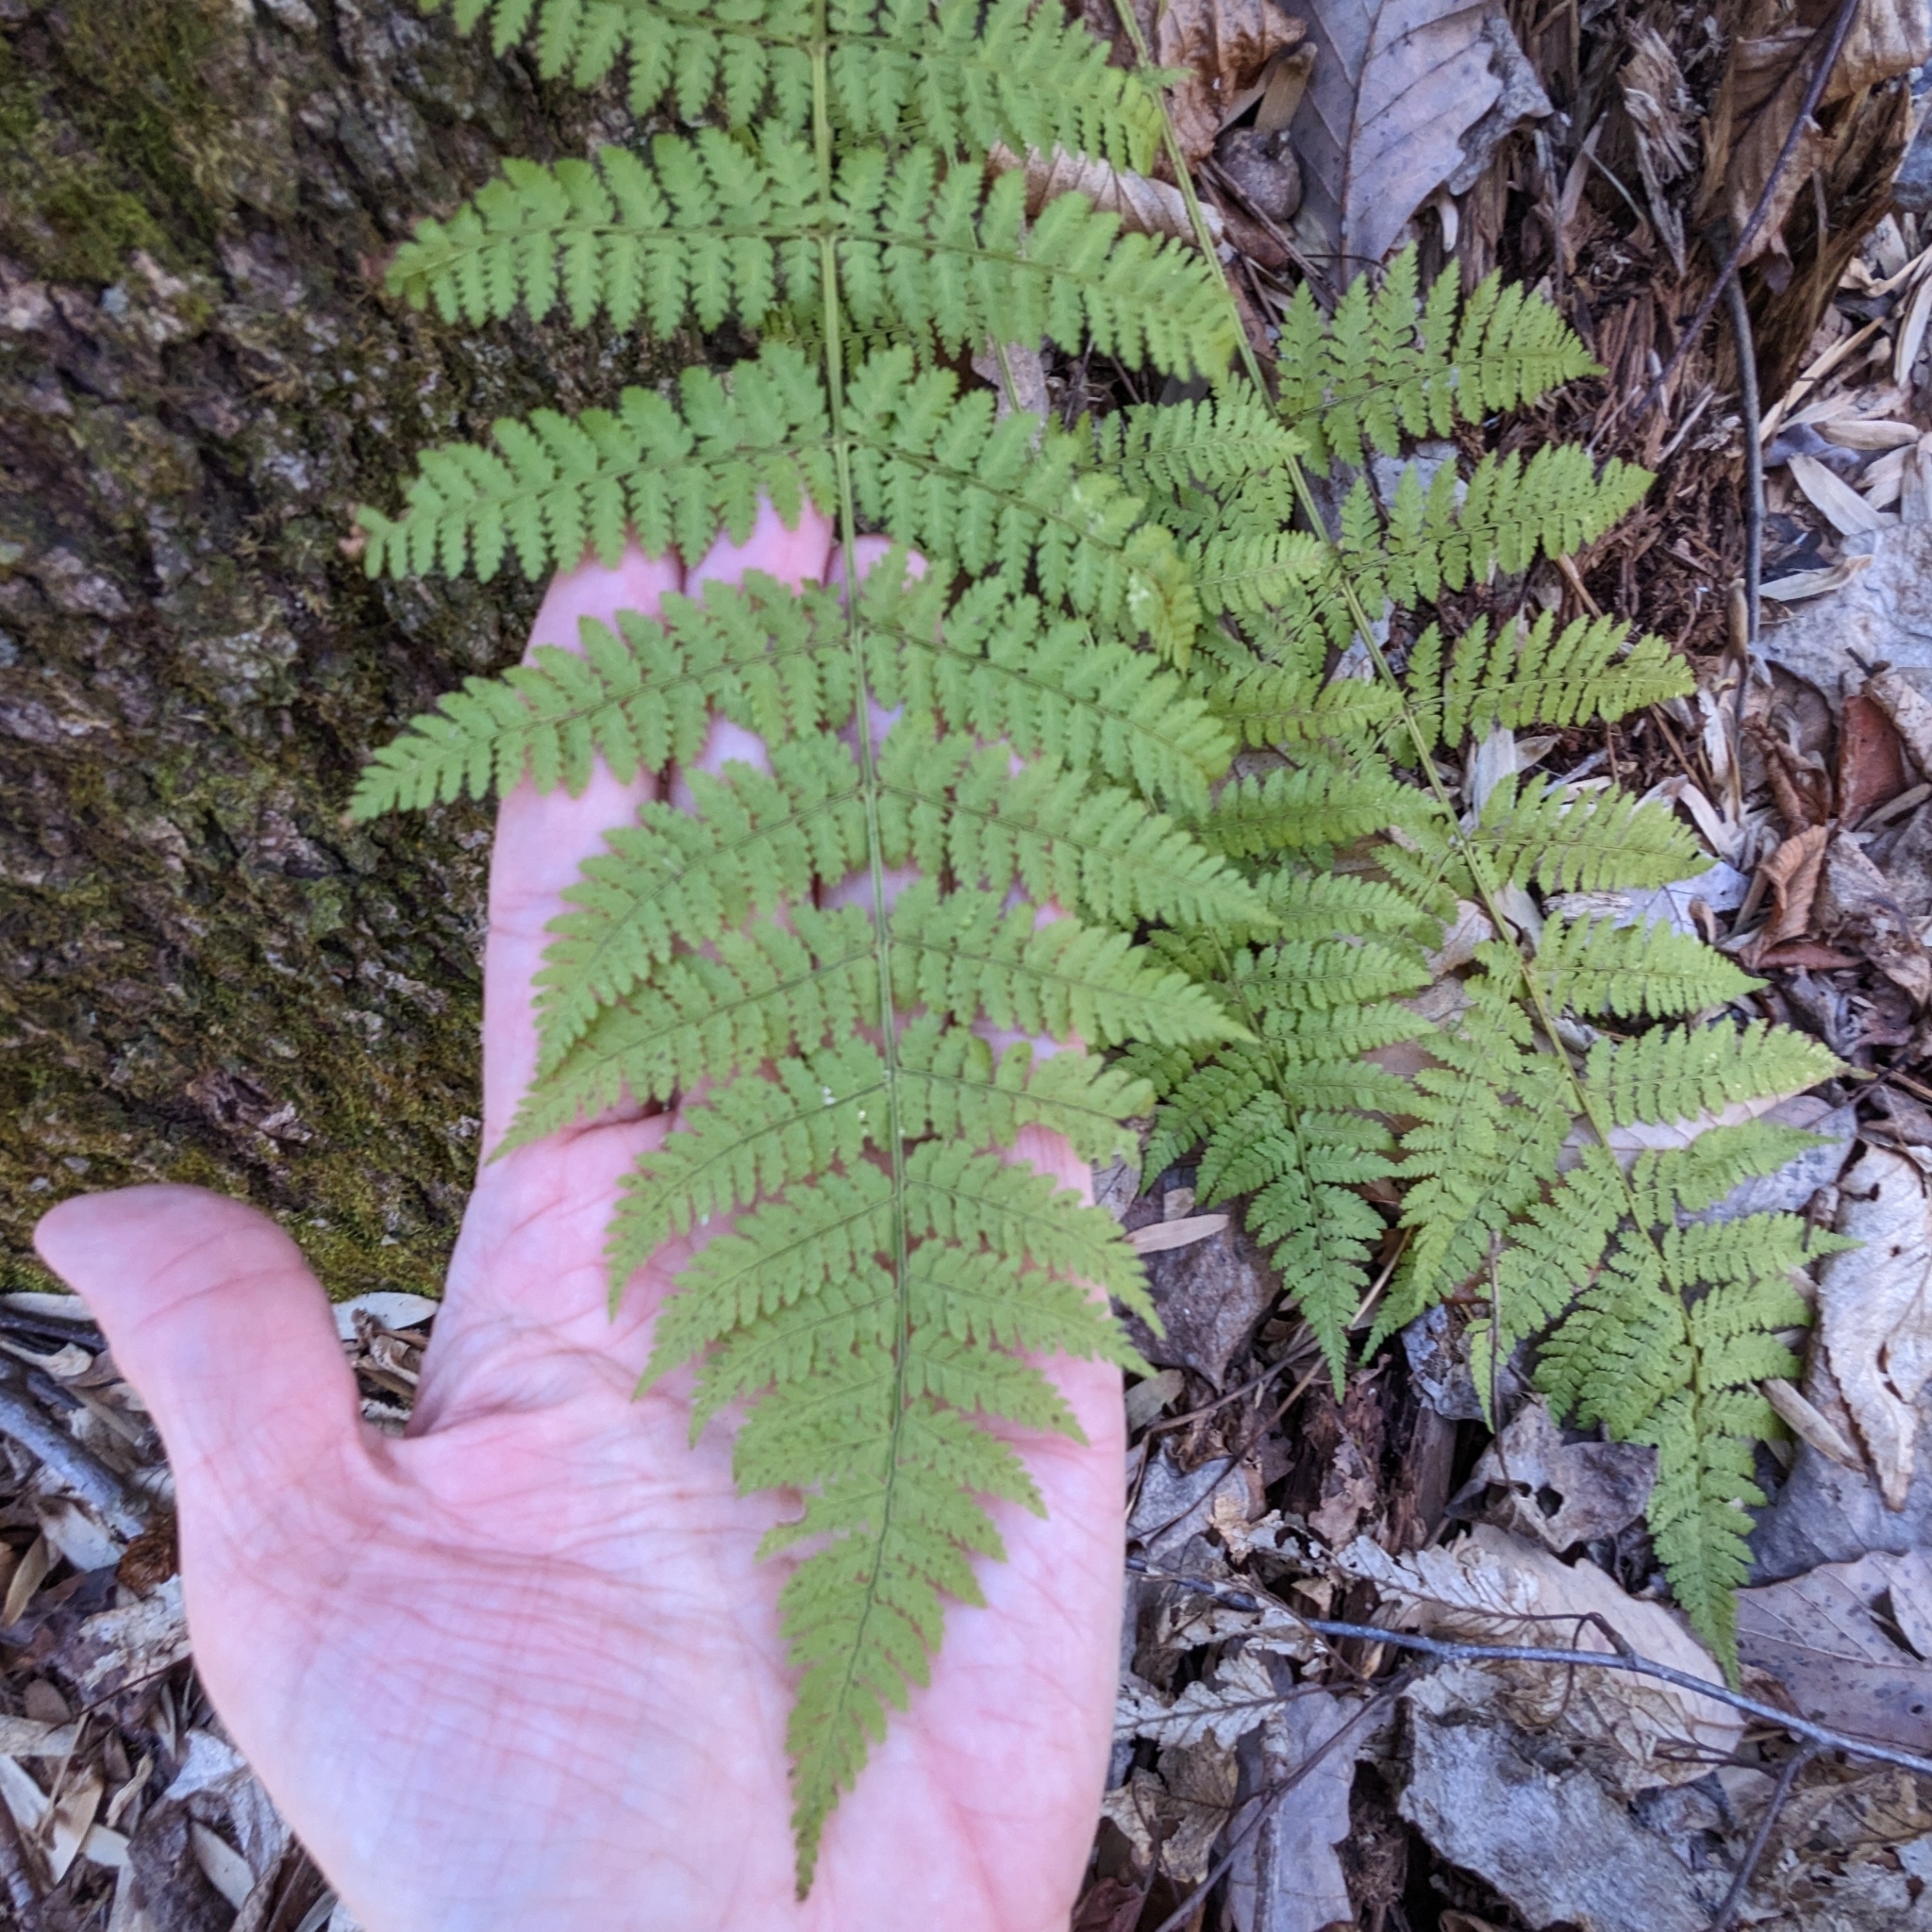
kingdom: Plantae
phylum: Tracheophyta
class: Polypodiopsida
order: Polypodiales
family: Dryopteridaceae
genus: Dryopteris
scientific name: Dryopteris intermedia
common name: Evergreen wood fern
